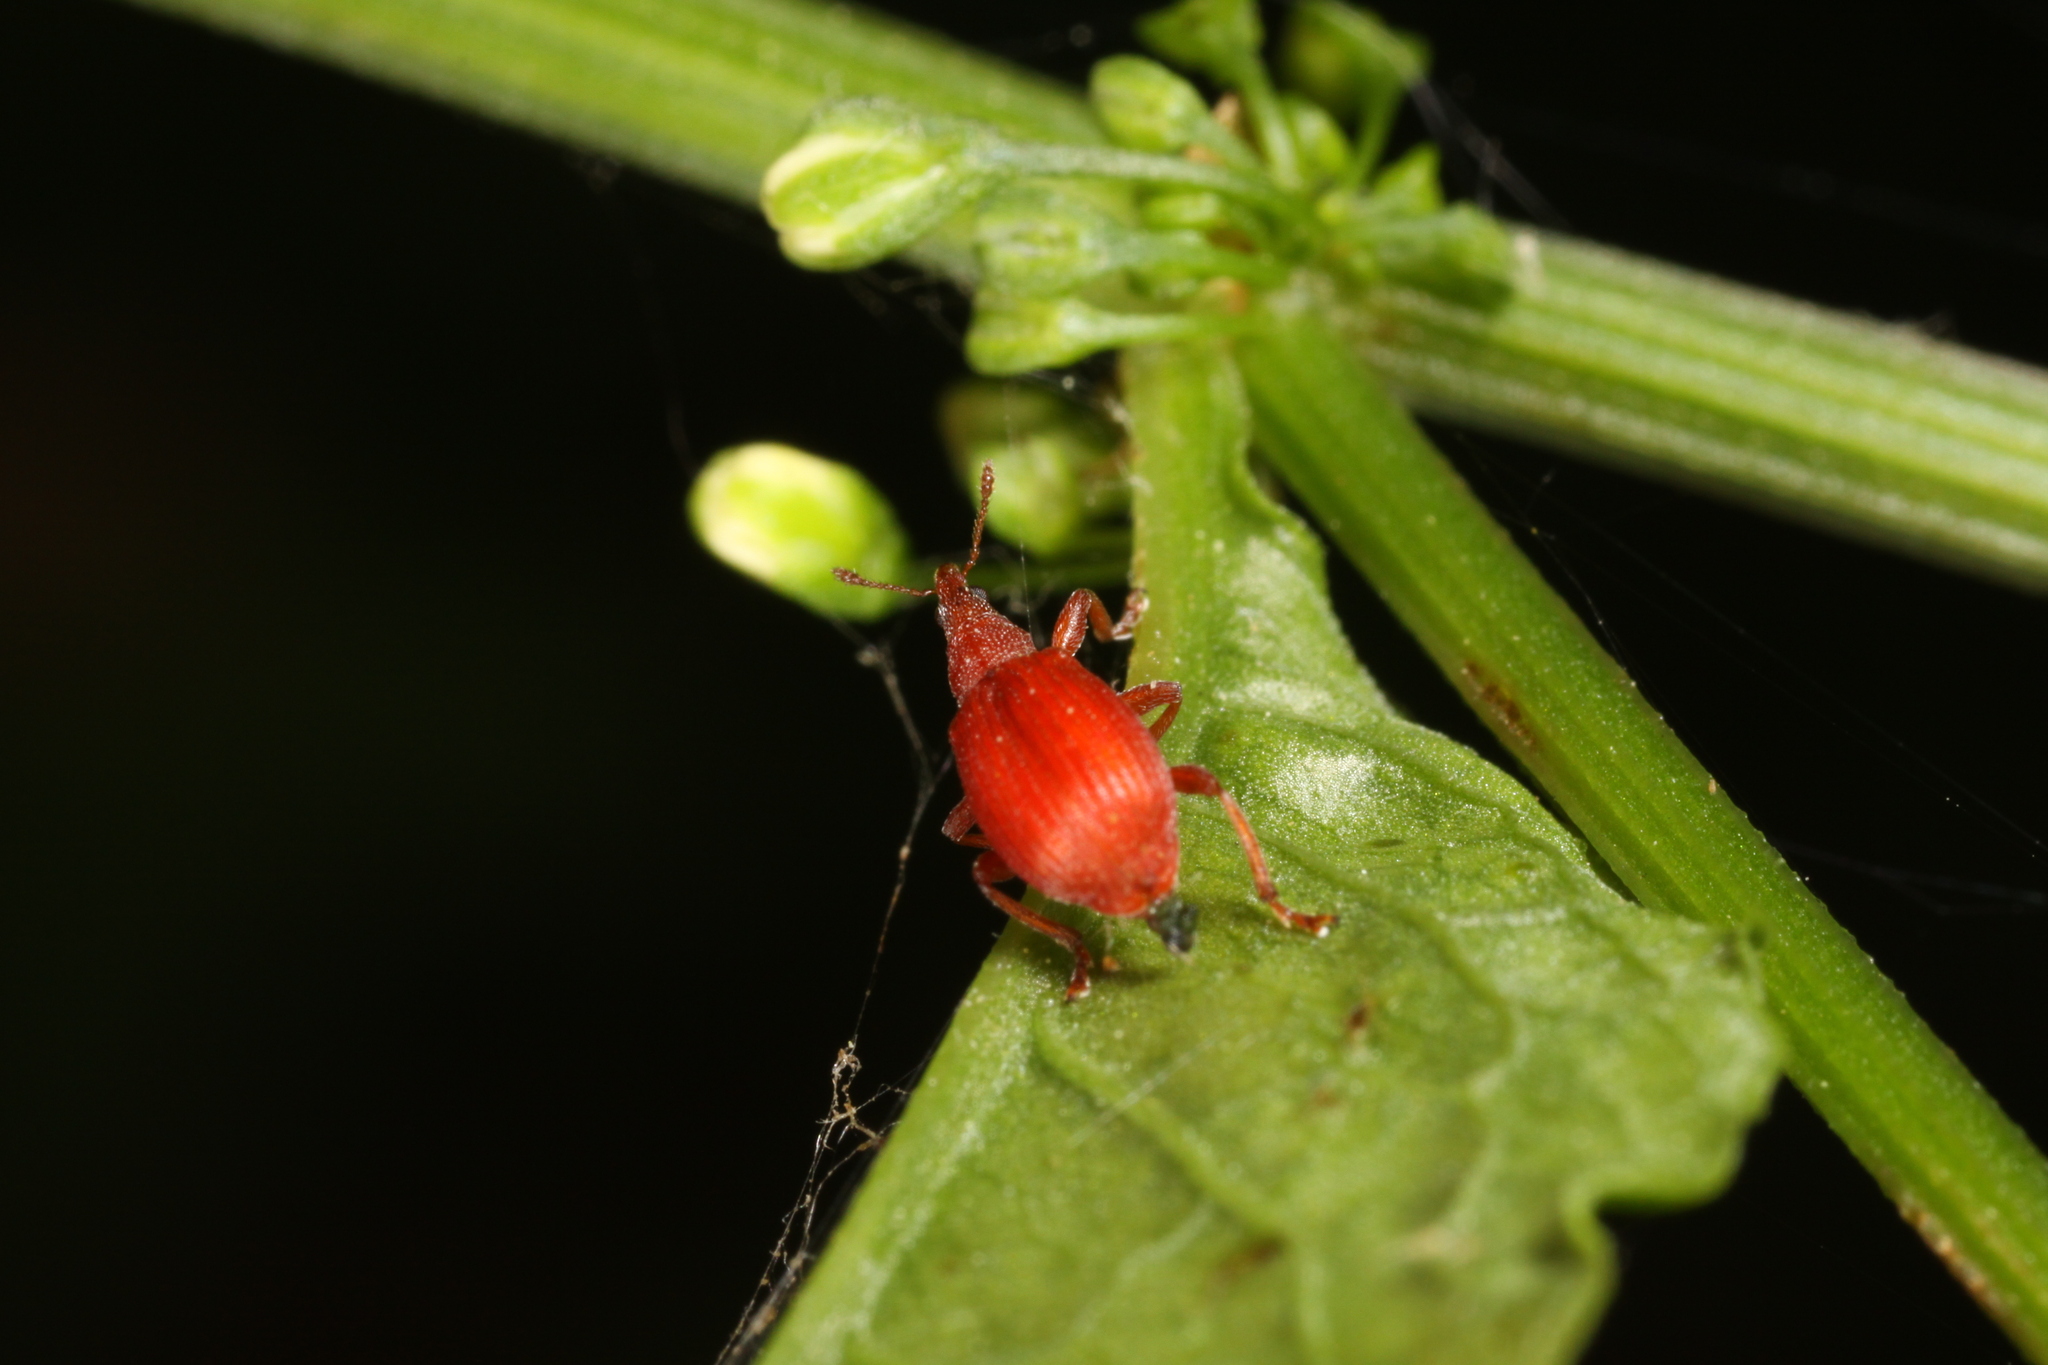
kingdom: Animalia
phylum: Arthropoda
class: Insecta
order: Coleoptera
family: Apionidae
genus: Apion
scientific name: Apion frumentarium
